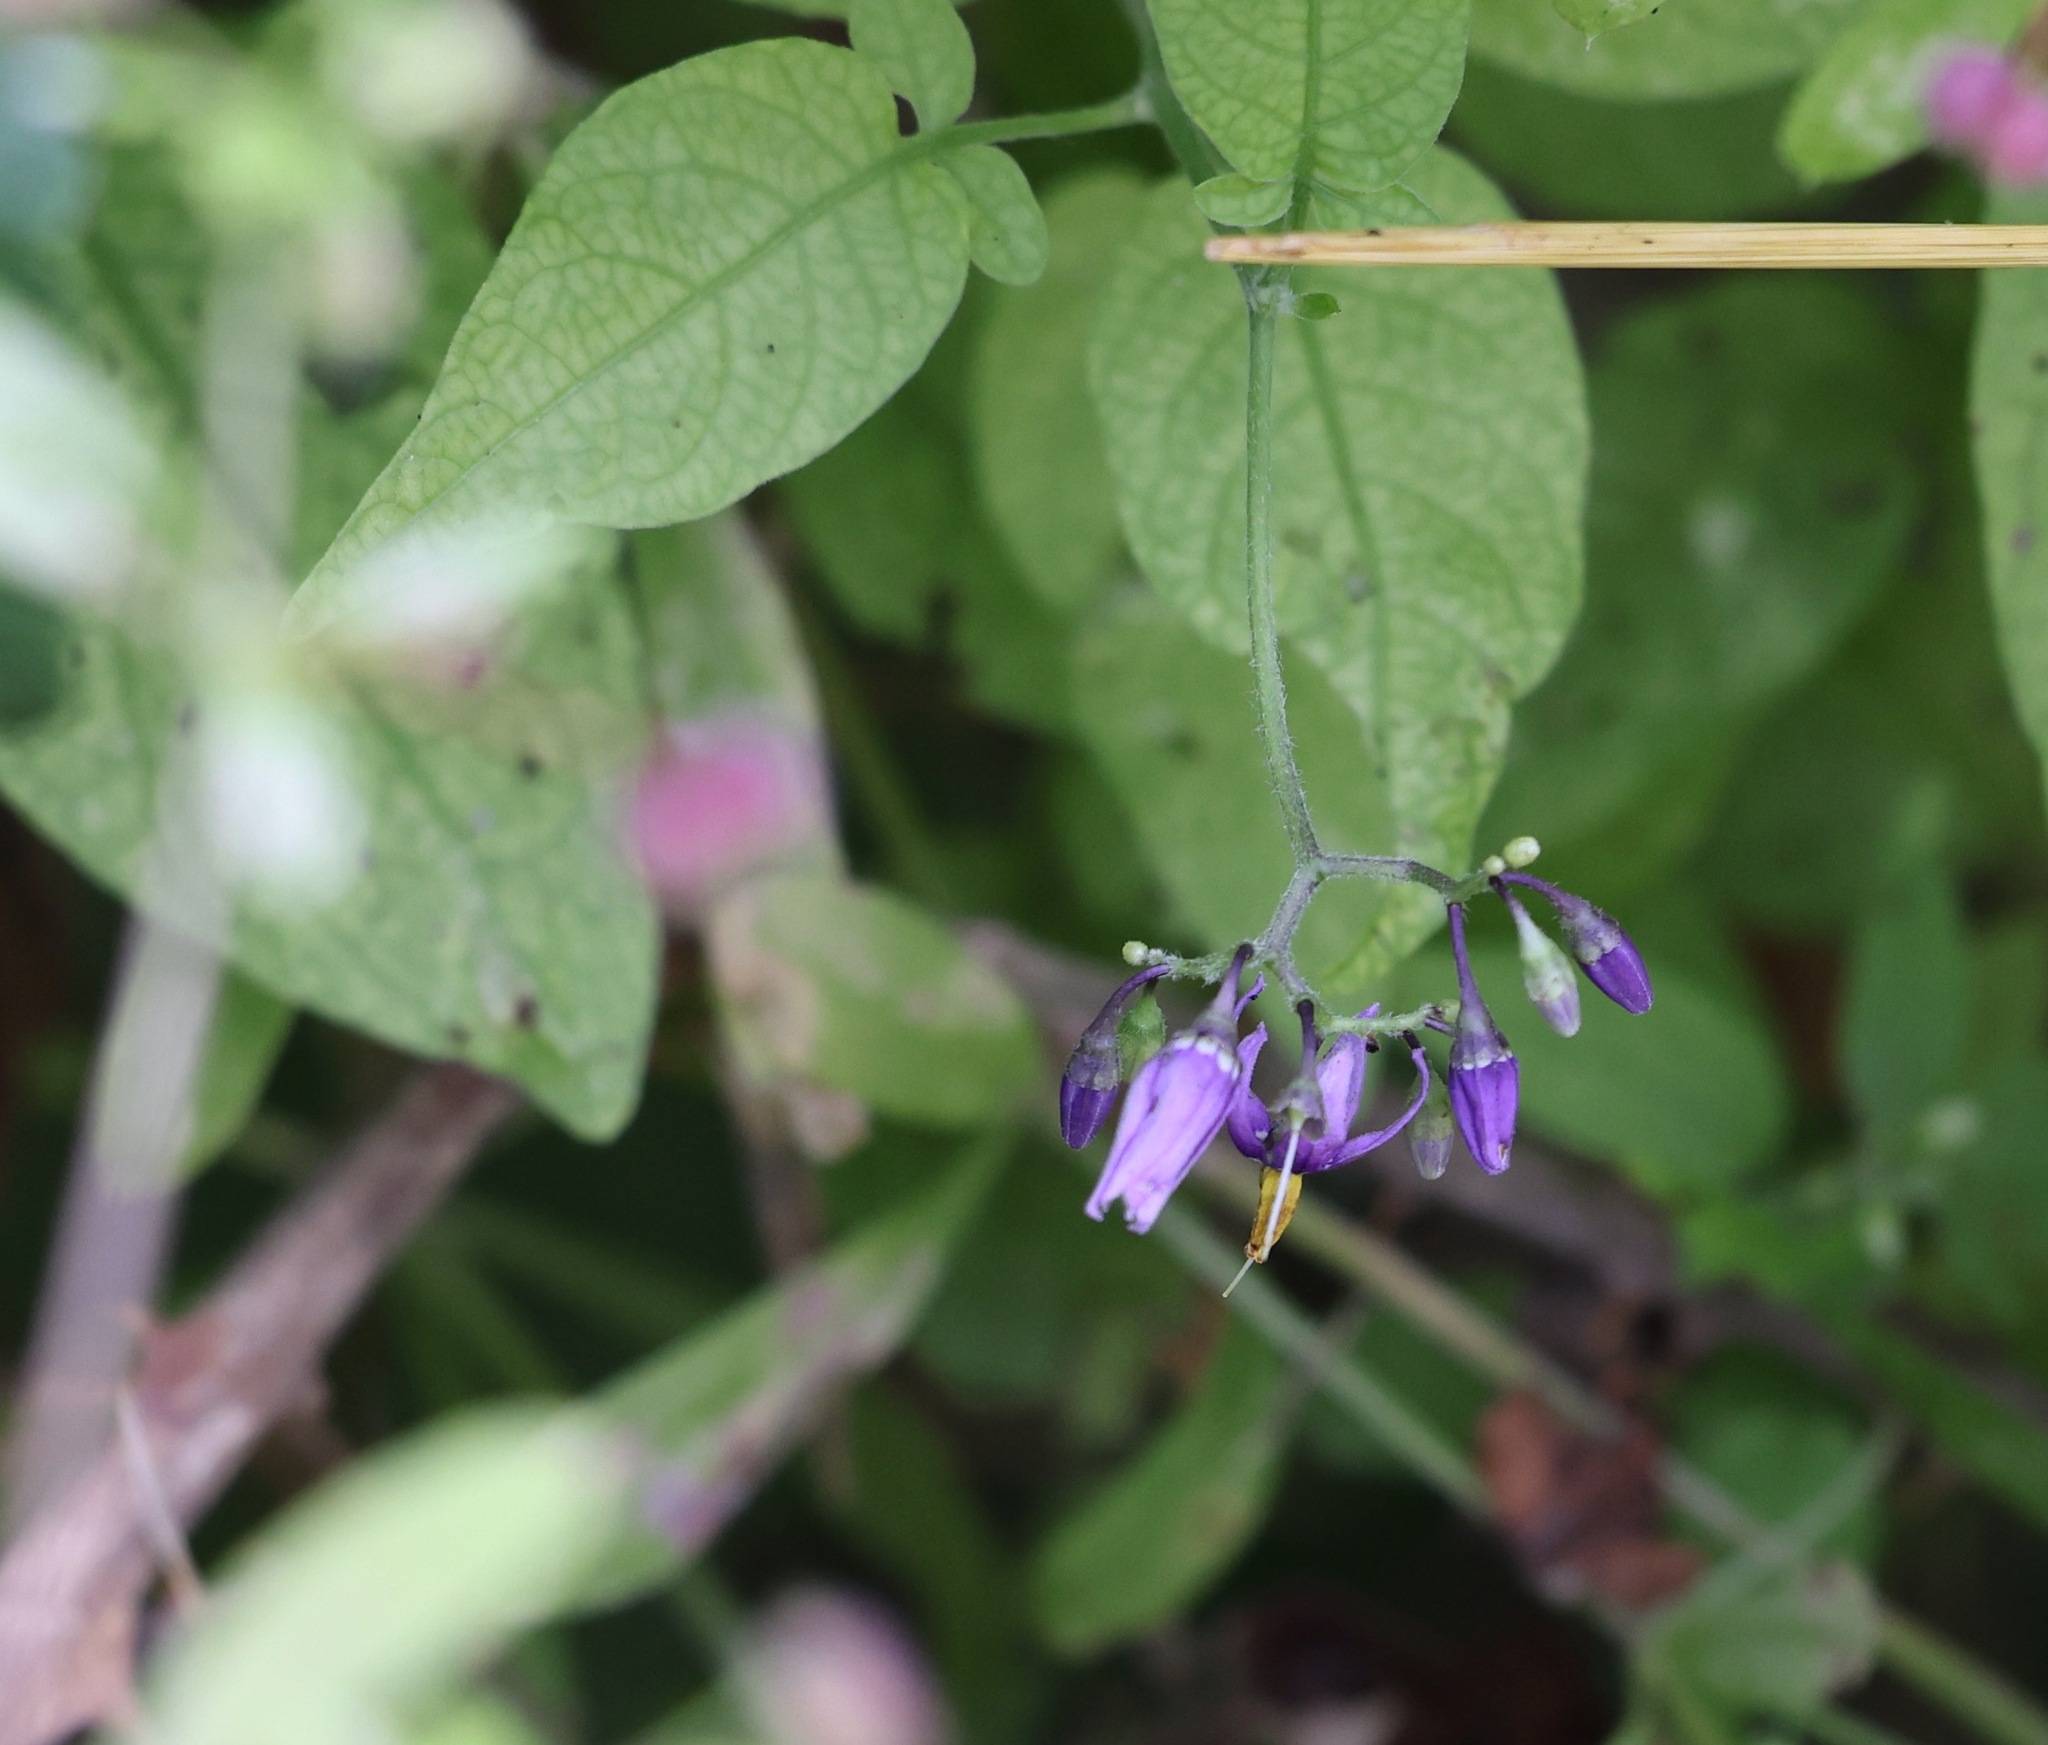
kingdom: Plantae
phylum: Tracheophyta
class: Magnoliopsida
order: Solanales
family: Solanaceae
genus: Solanum
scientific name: Solanum dulcamara
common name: Climbing nightshade
